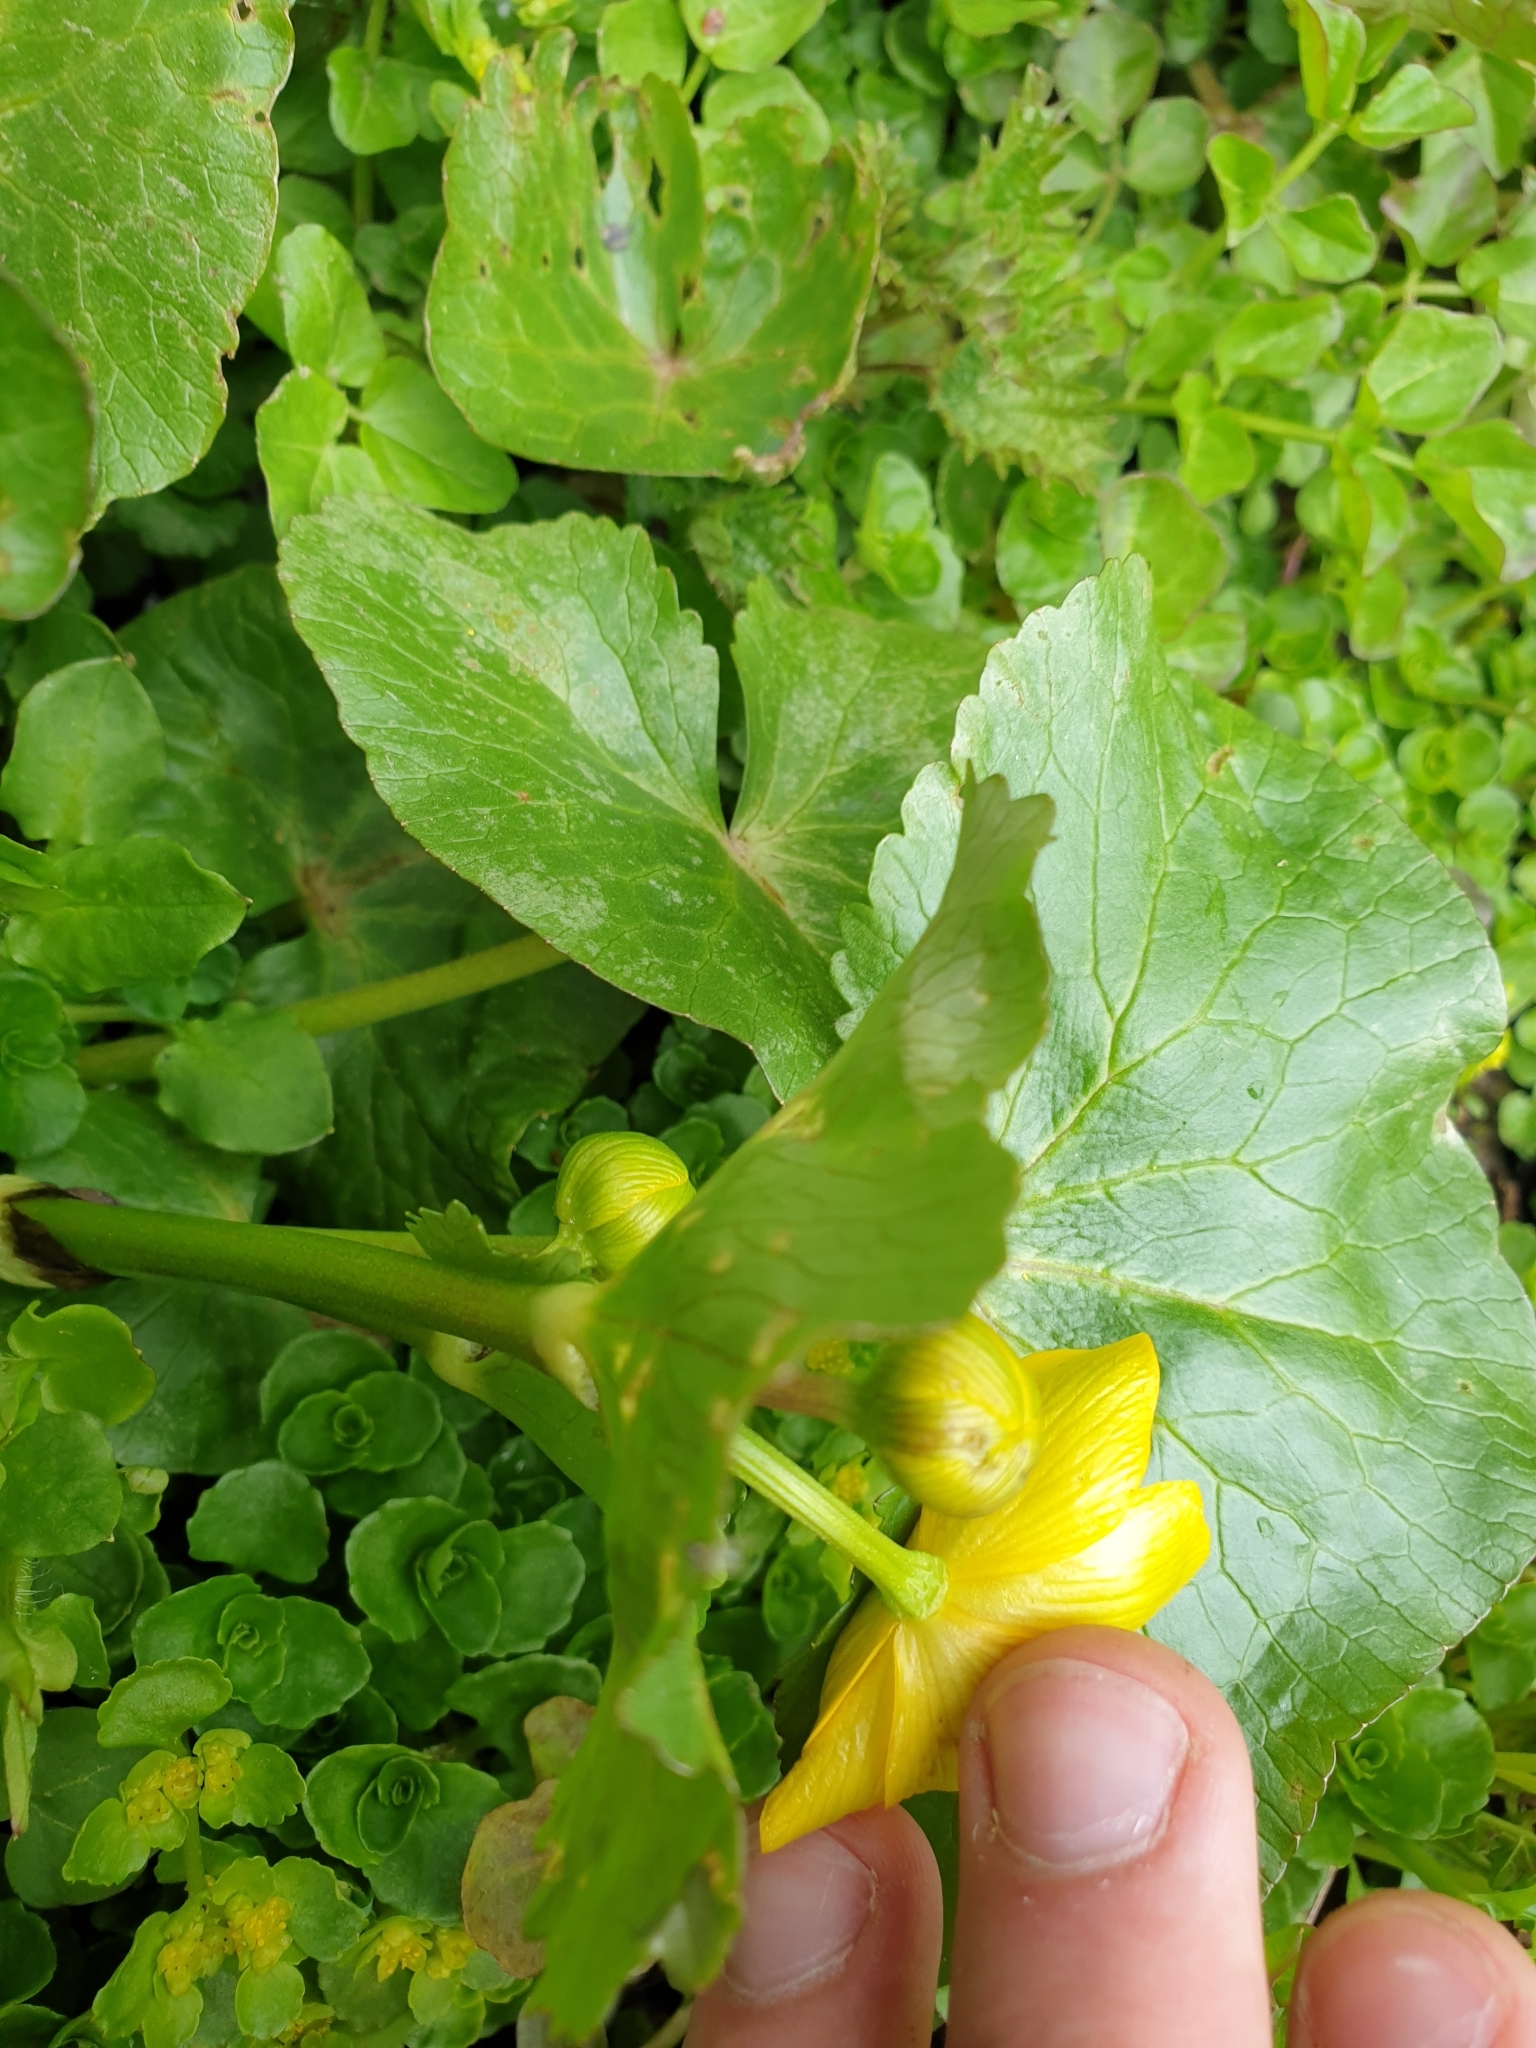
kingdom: Plantae
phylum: Tracheophyta
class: Magnoliopsida
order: Ranunculales
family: Ranunculaceae
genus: Caltha
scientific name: Caltha palustris
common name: Marsh marigold
